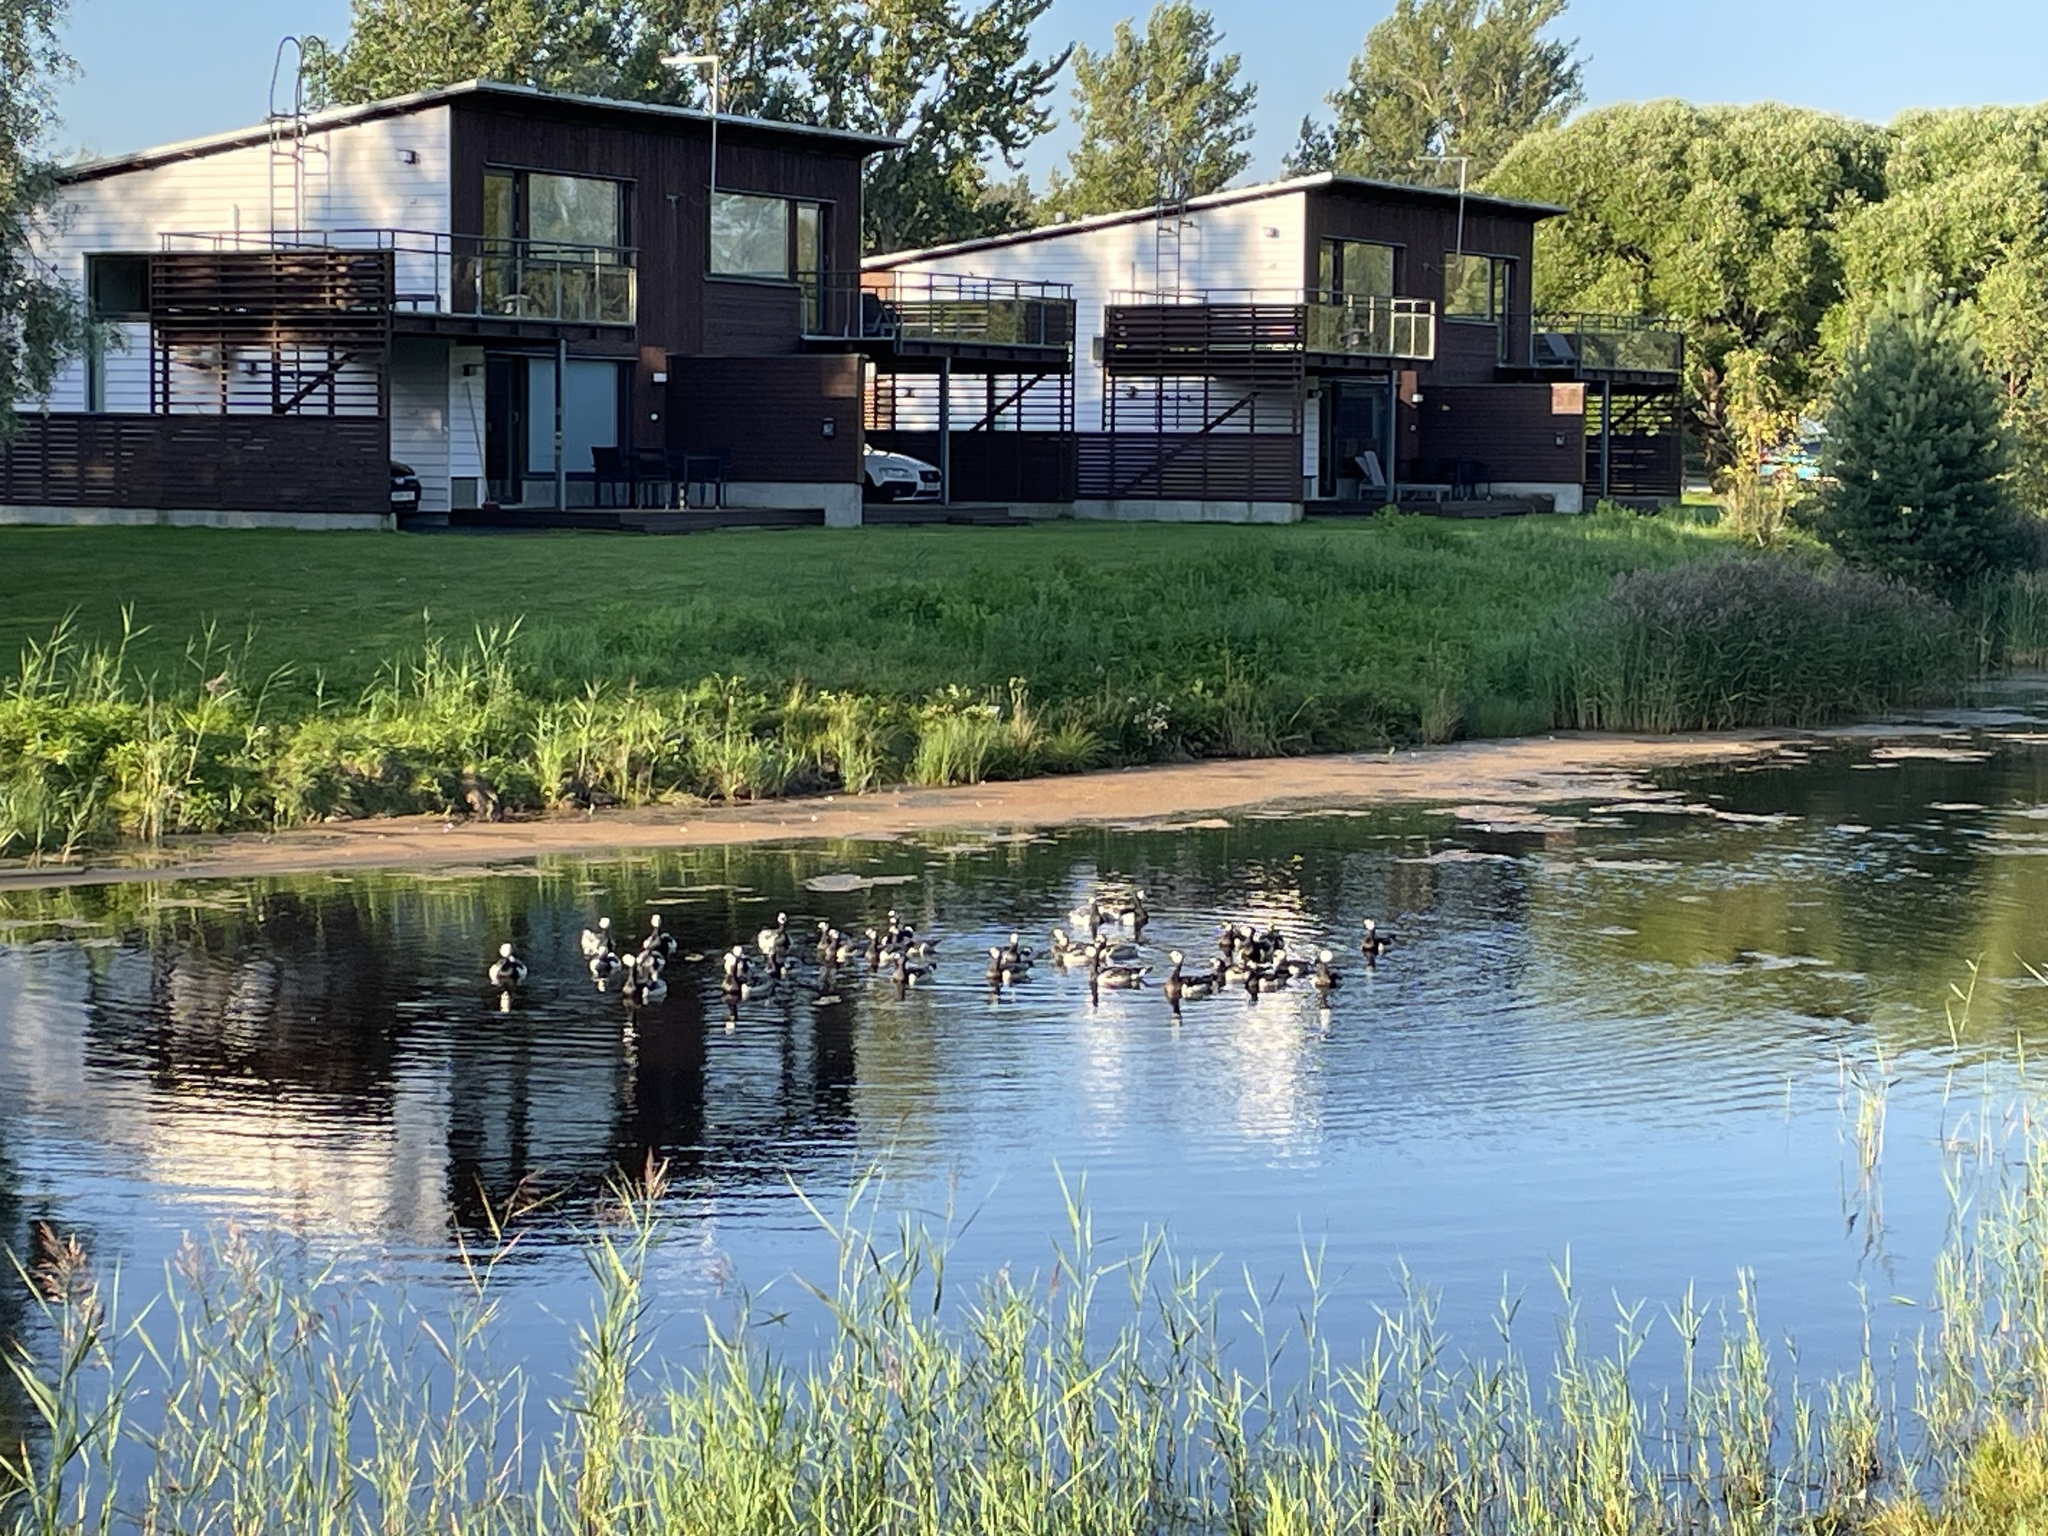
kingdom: Animalia
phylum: Chordata
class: Aves
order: Anseriformes
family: Anatidae
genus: Branta
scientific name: Branta leucopsis
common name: Barnacle goose
